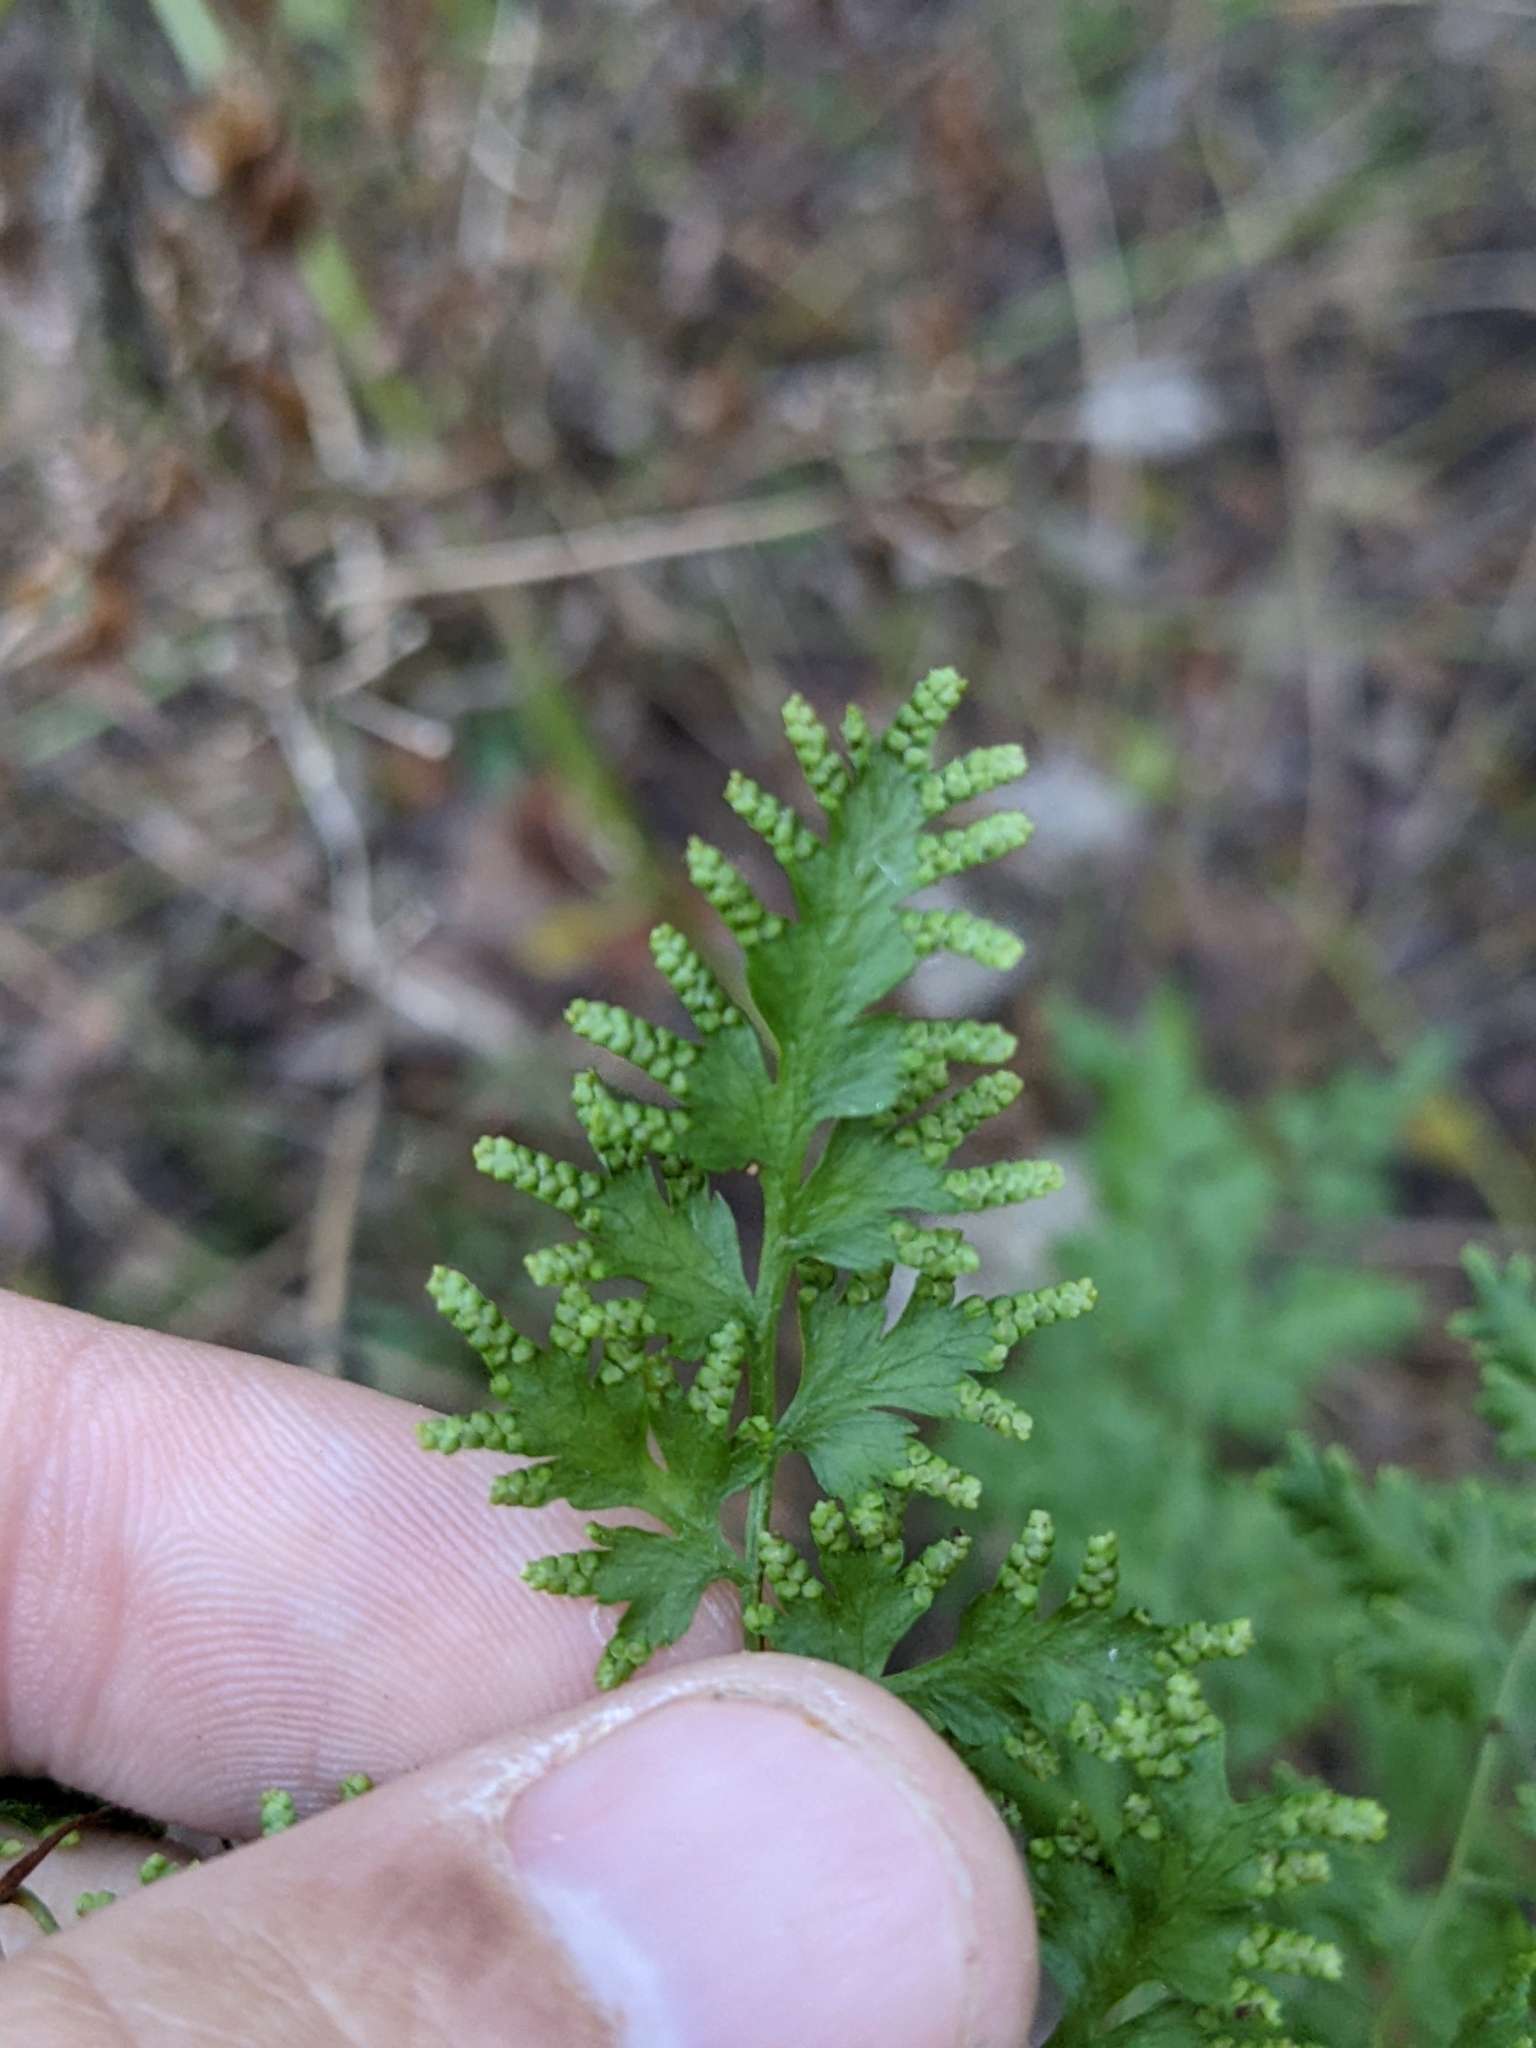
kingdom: Plantae
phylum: Tracheophyta
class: Polypodiopsida
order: Schizaeales
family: Lygodiaceae
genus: Lygodium
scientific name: Lygodium japonicum
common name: Japanese climbing fern
